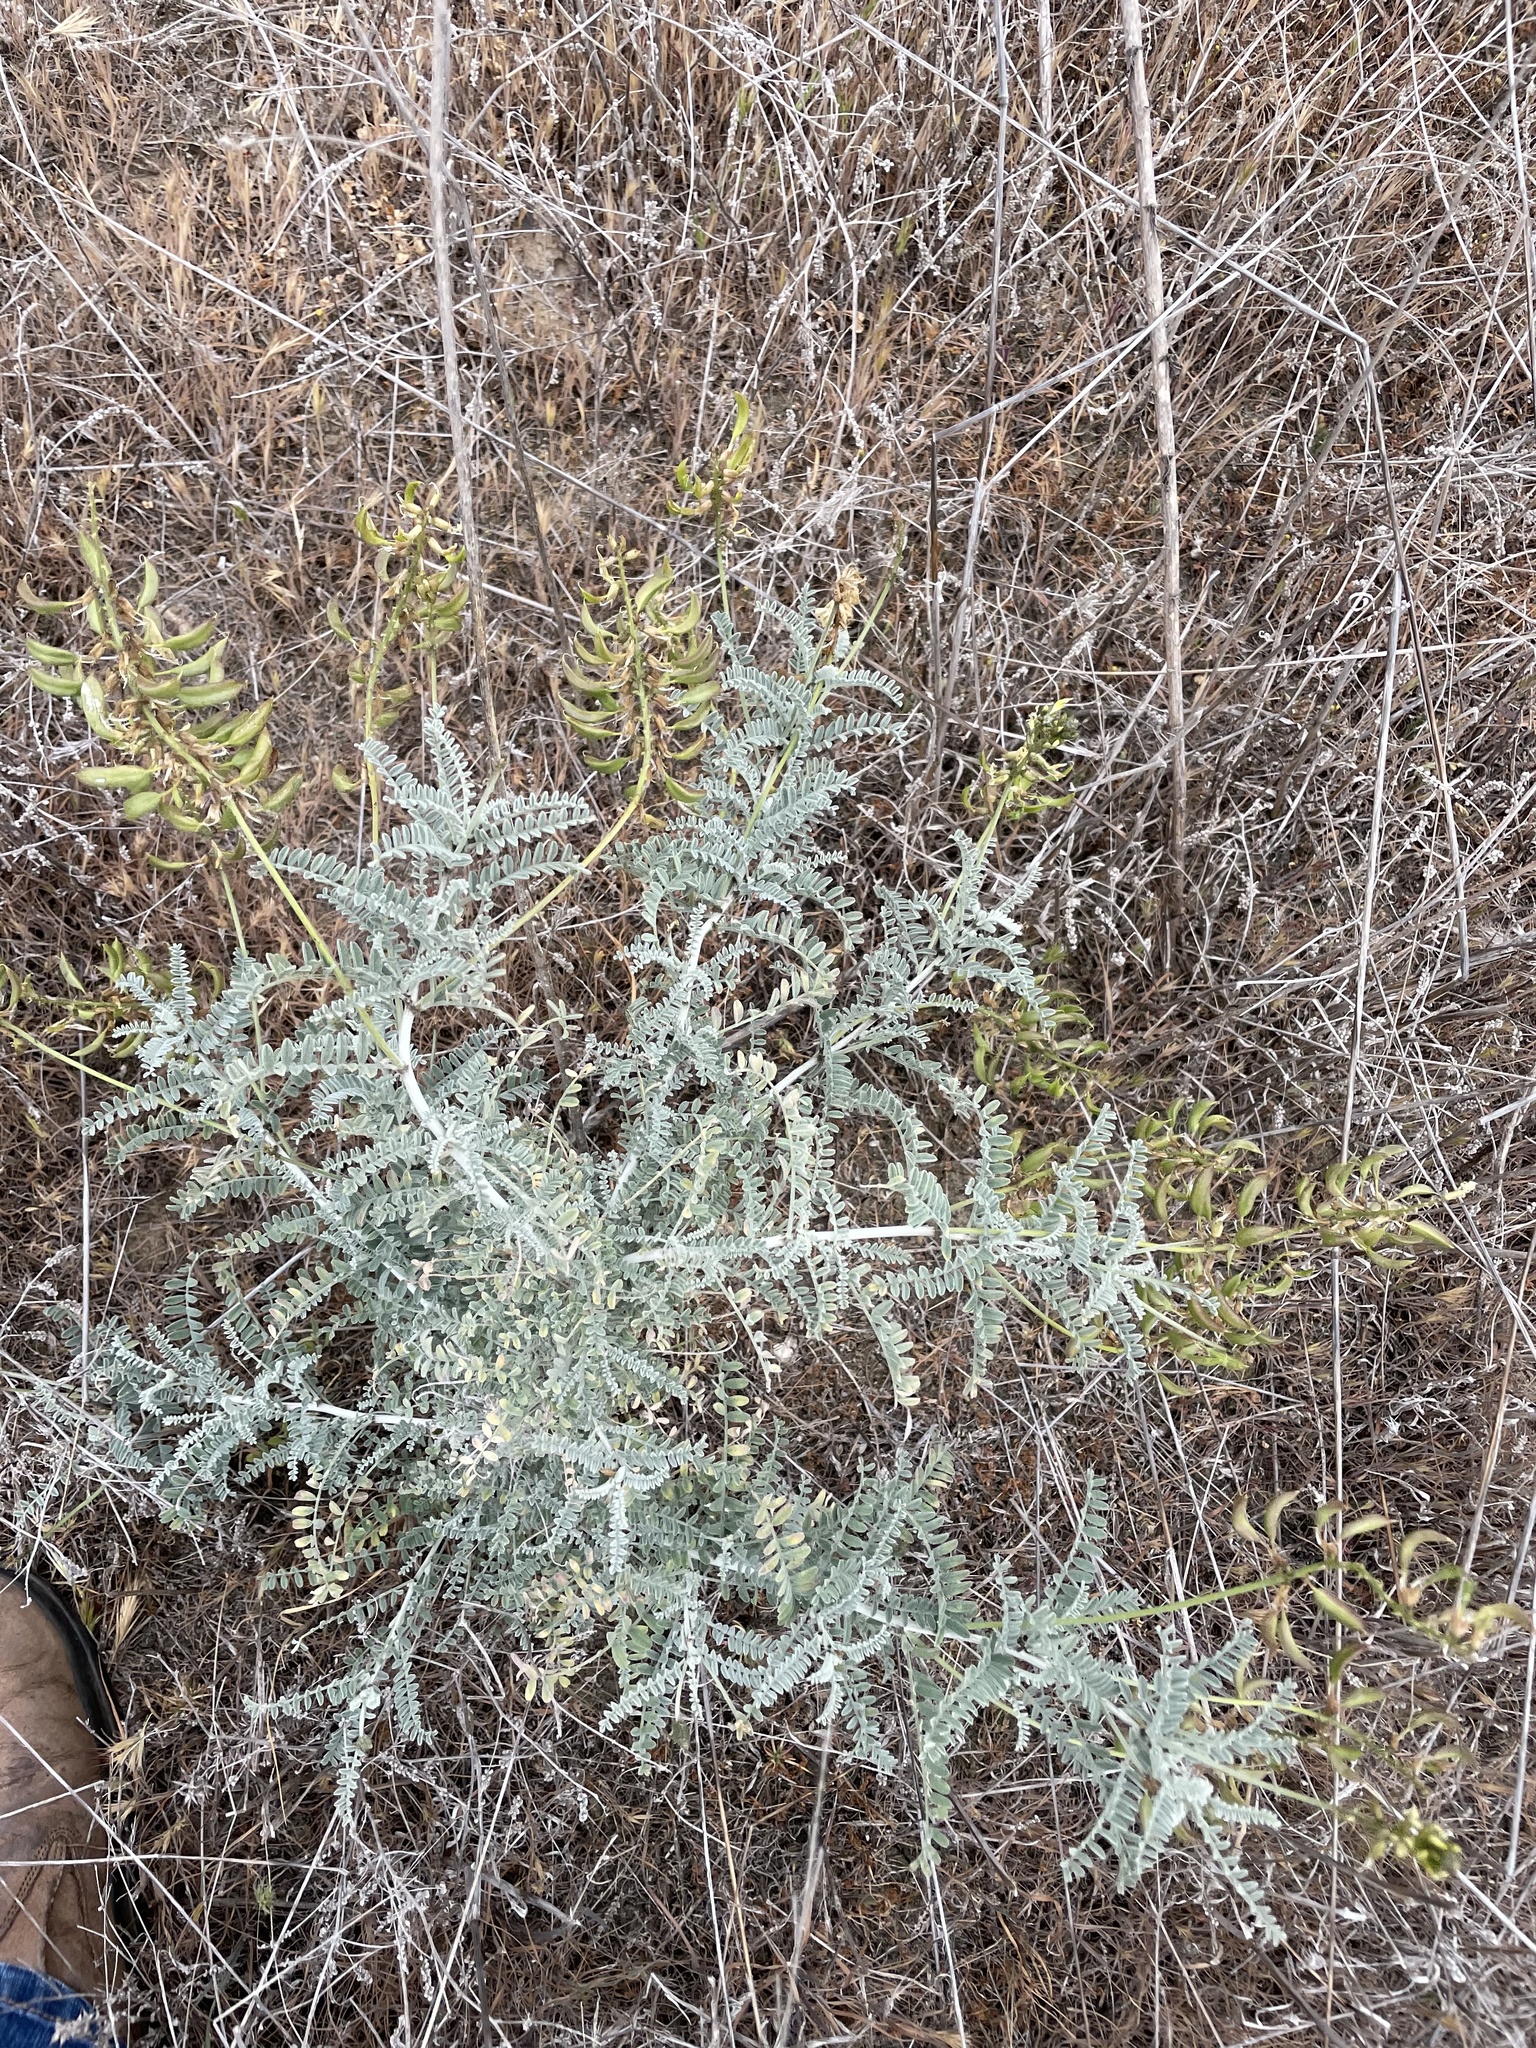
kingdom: Plantae
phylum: Tracheophyta
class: Magnoliopsida
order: Fabales
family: Fabaceae
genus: Astragalus
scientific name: Astragalus nevinii
